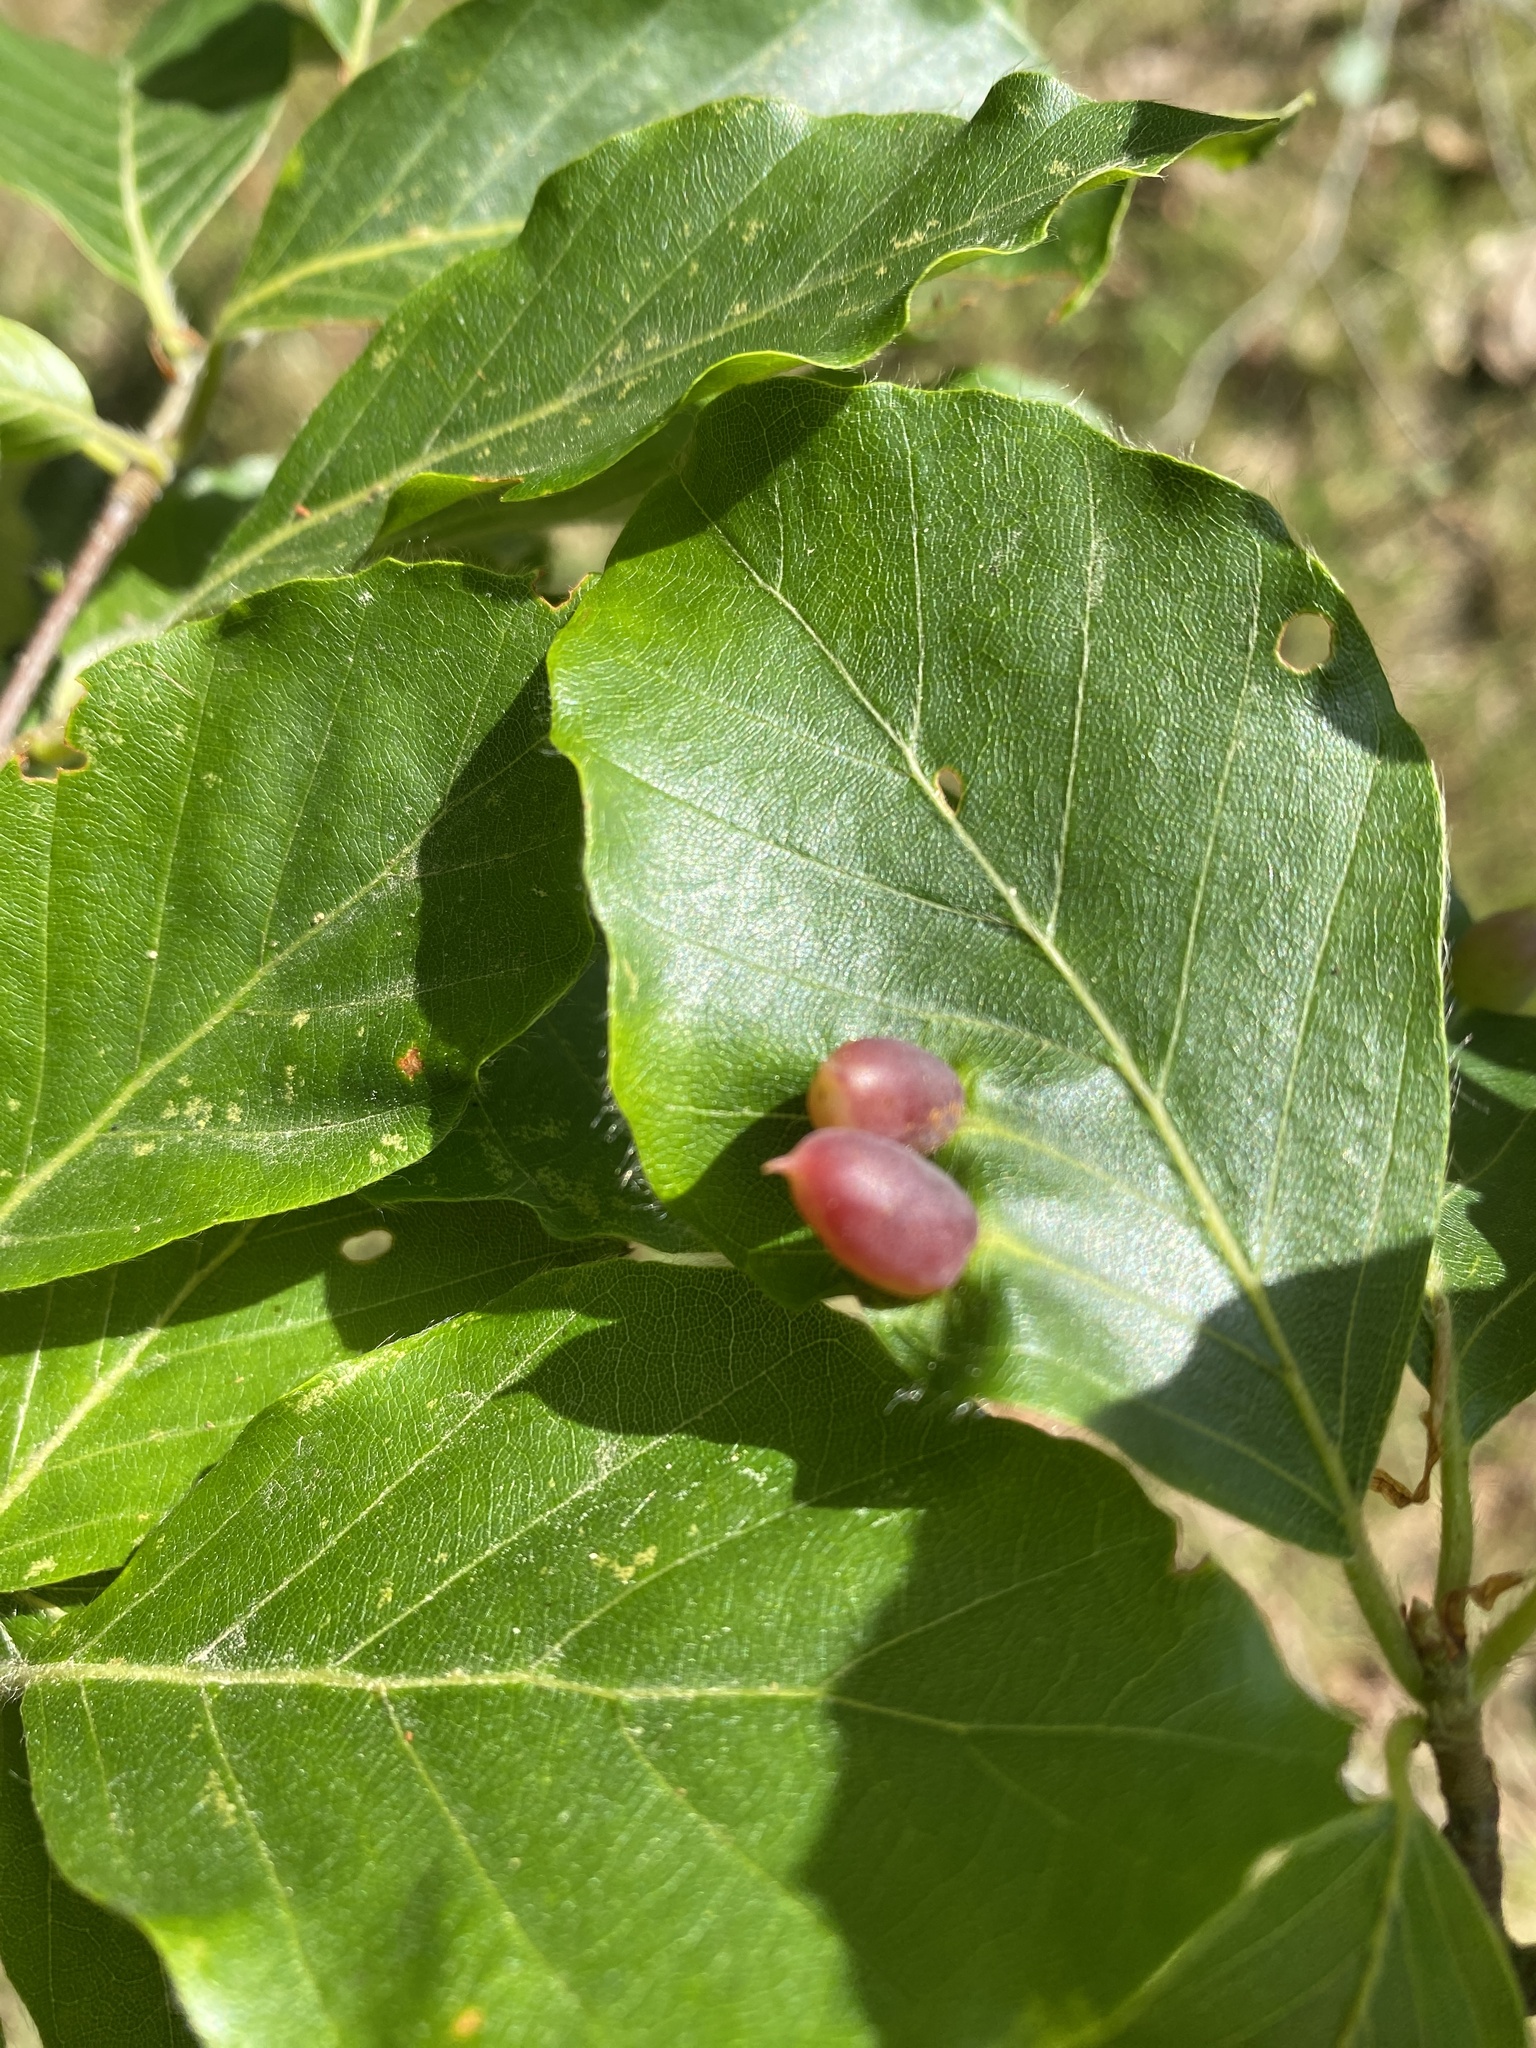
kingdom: Animalia
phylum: Arthropoda
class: Insecta
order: Diptera
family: Cecidomyiidae
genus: Mikiola
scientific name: Mikiola fagi
